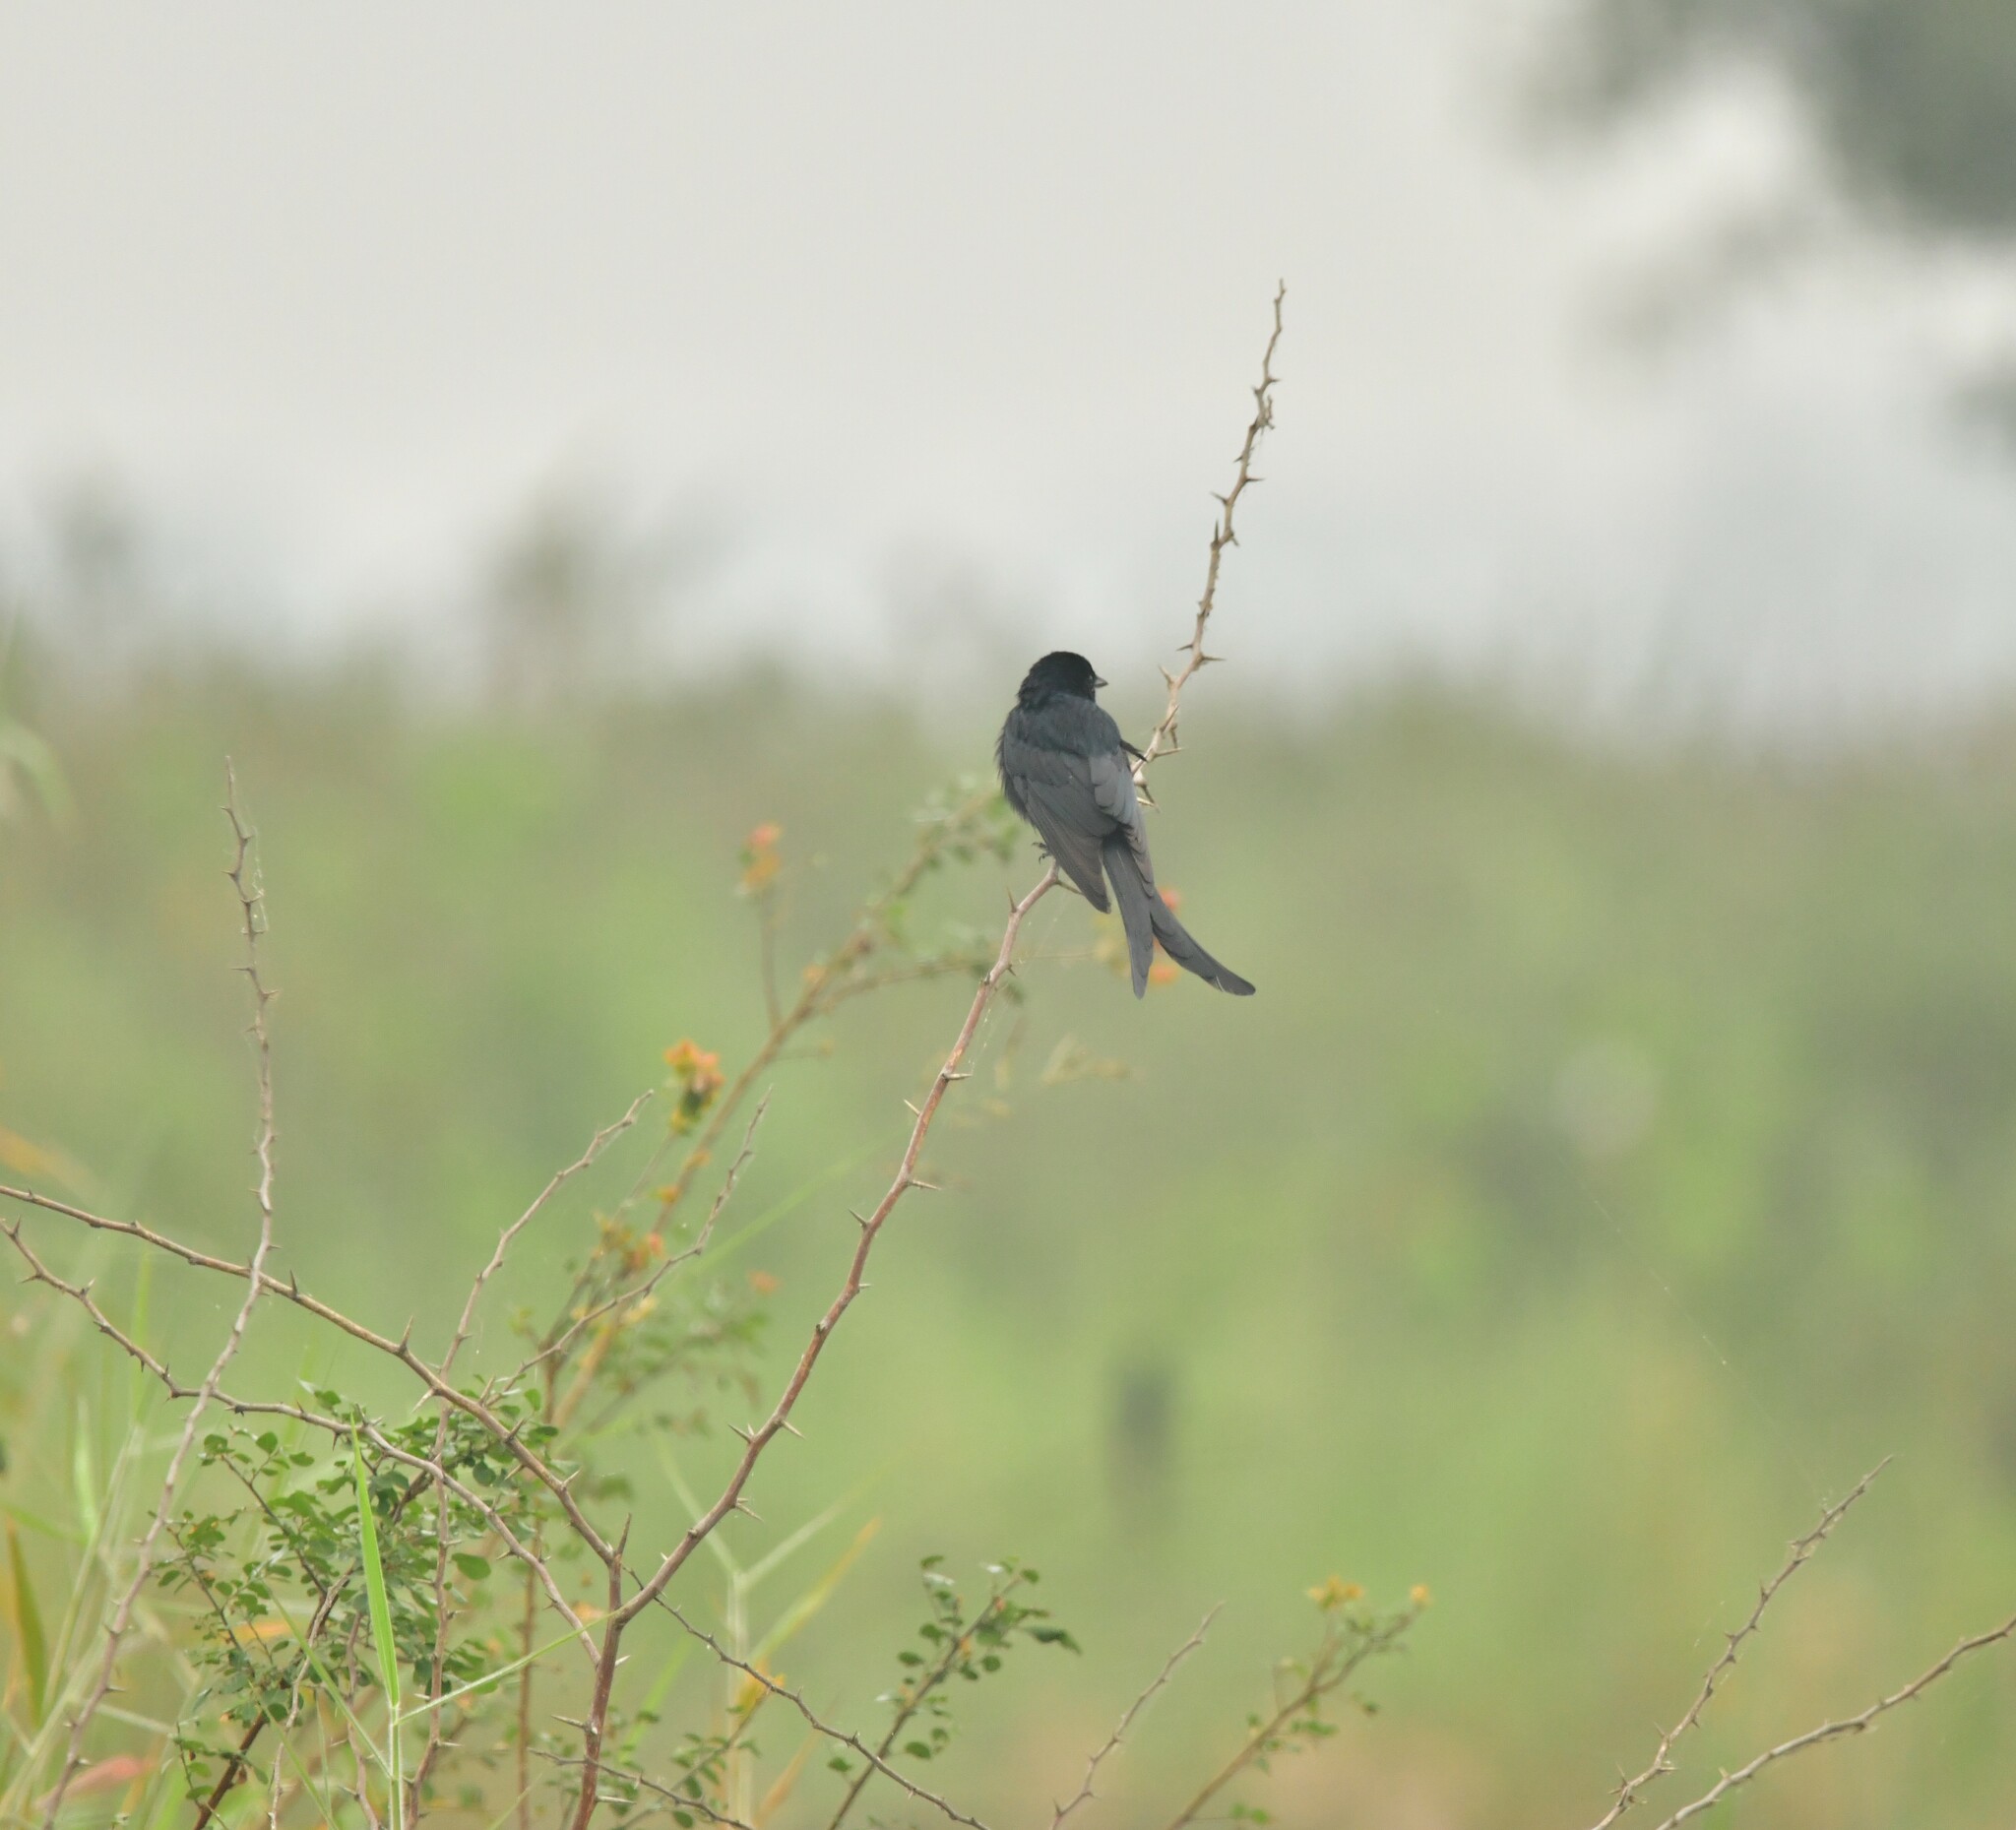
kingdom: Animalia
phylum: Chordata
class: Aves
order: Passeriformes
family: Dicruridae
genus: Dicrurus
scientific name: Dicrurus macrocercus
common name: Black drongo
